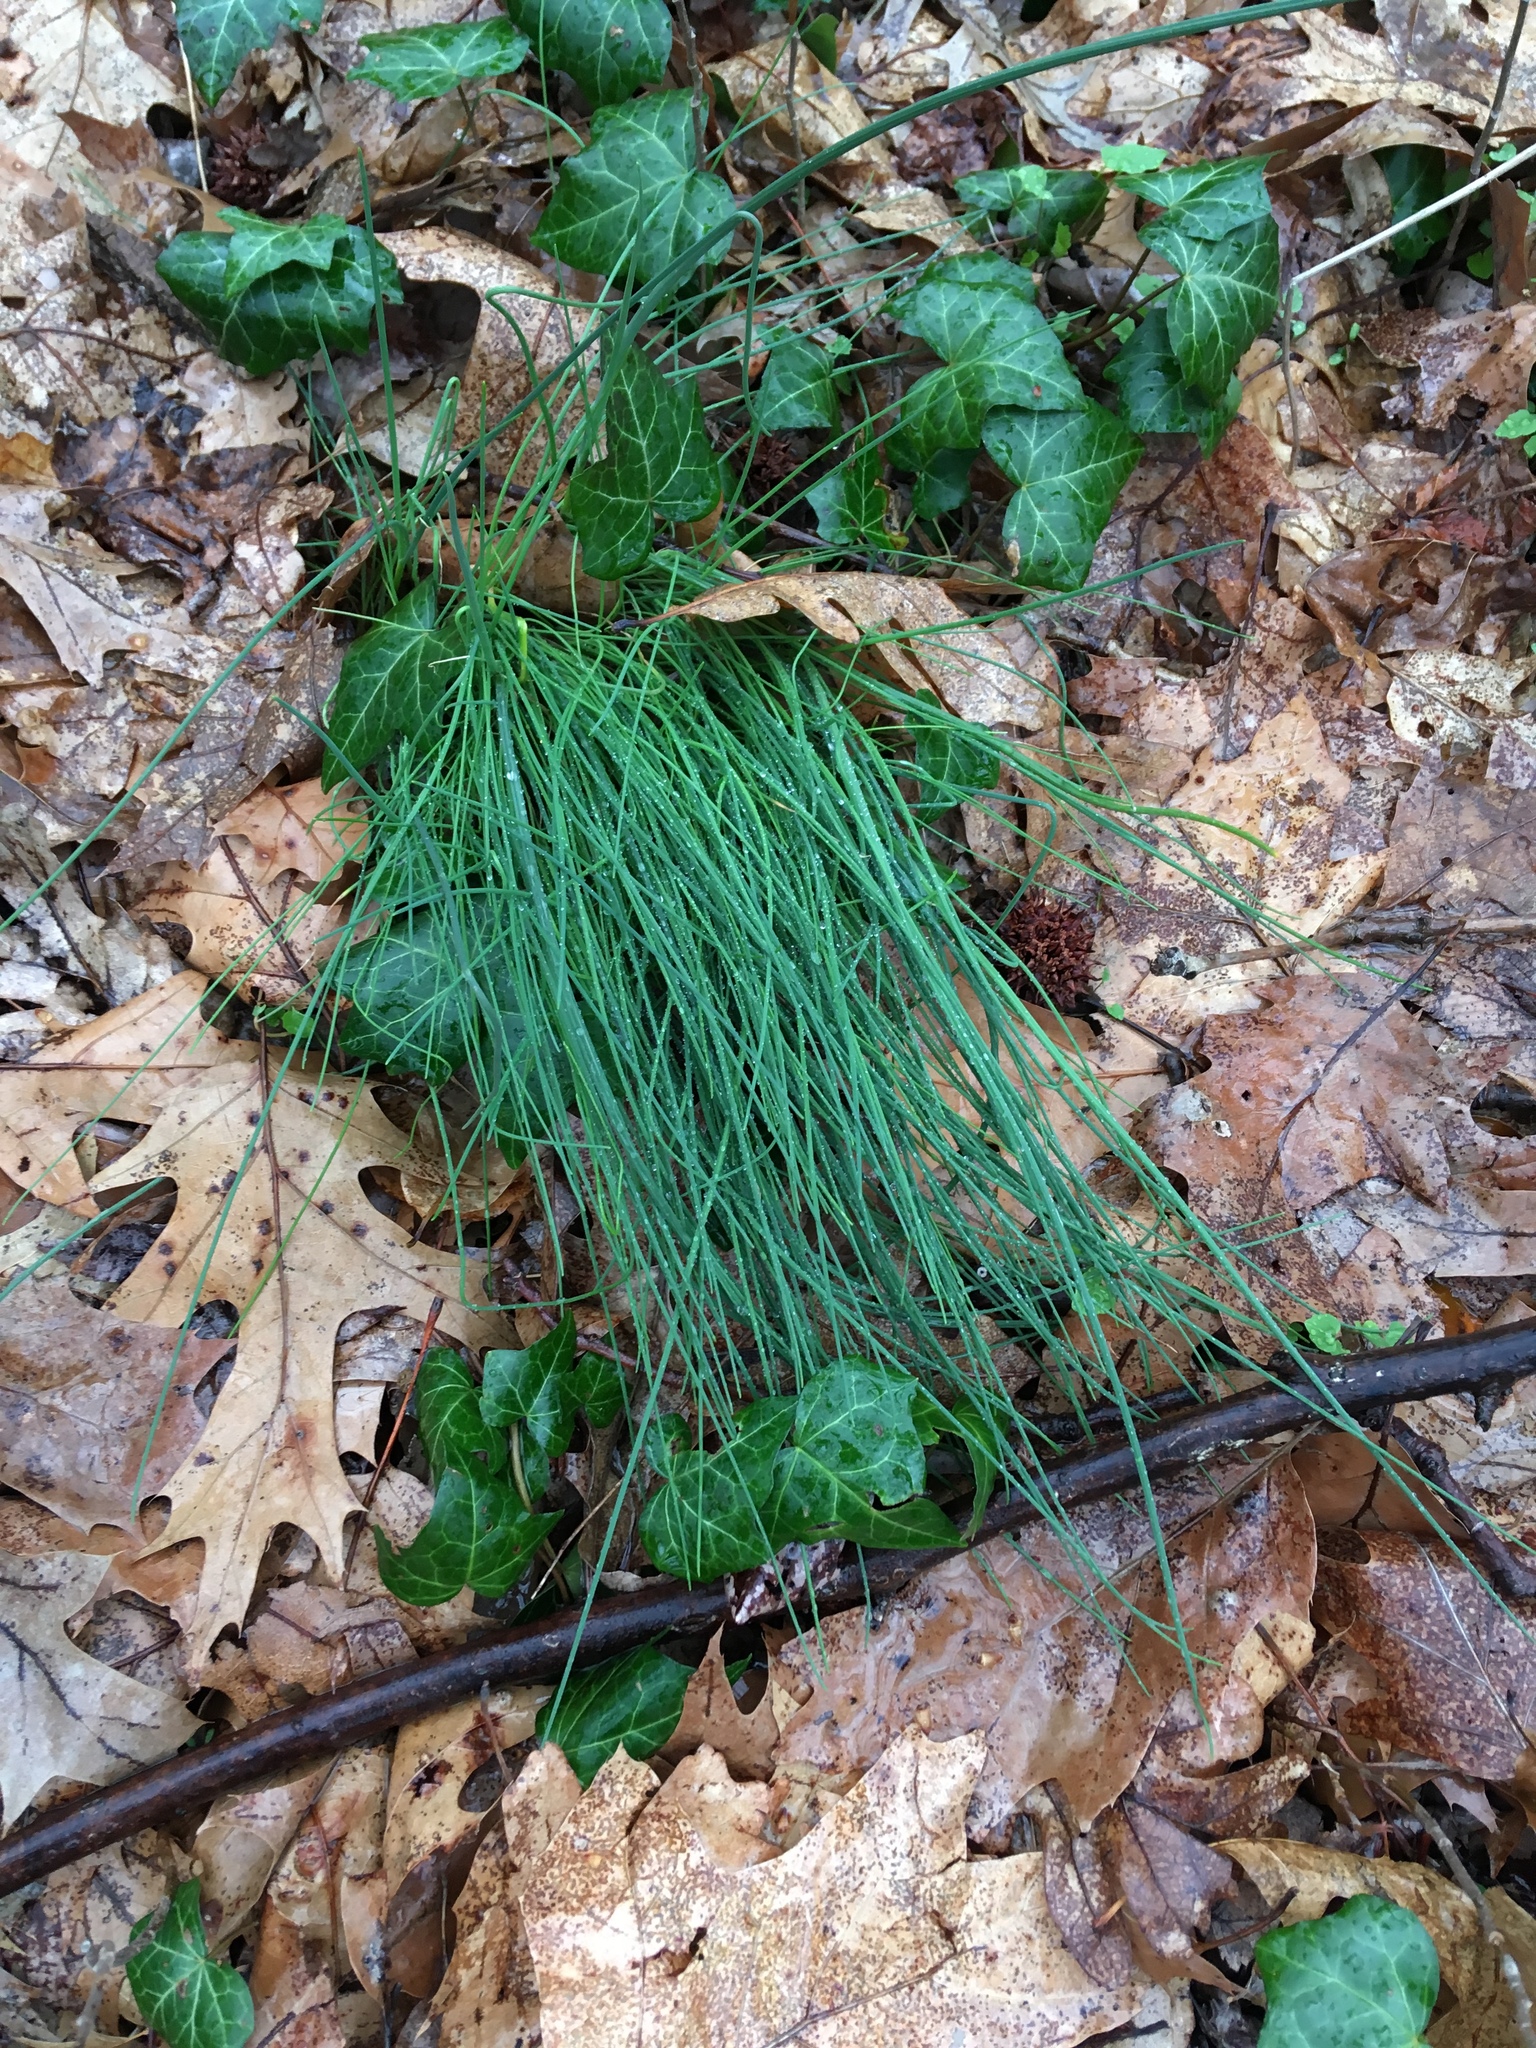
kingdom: Plantae
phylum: Tracheophyta
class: Liliopsida
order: Asparagales
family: Amaryllidaceae
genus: Allium
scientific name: Allium vineale
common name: Crow garlic
